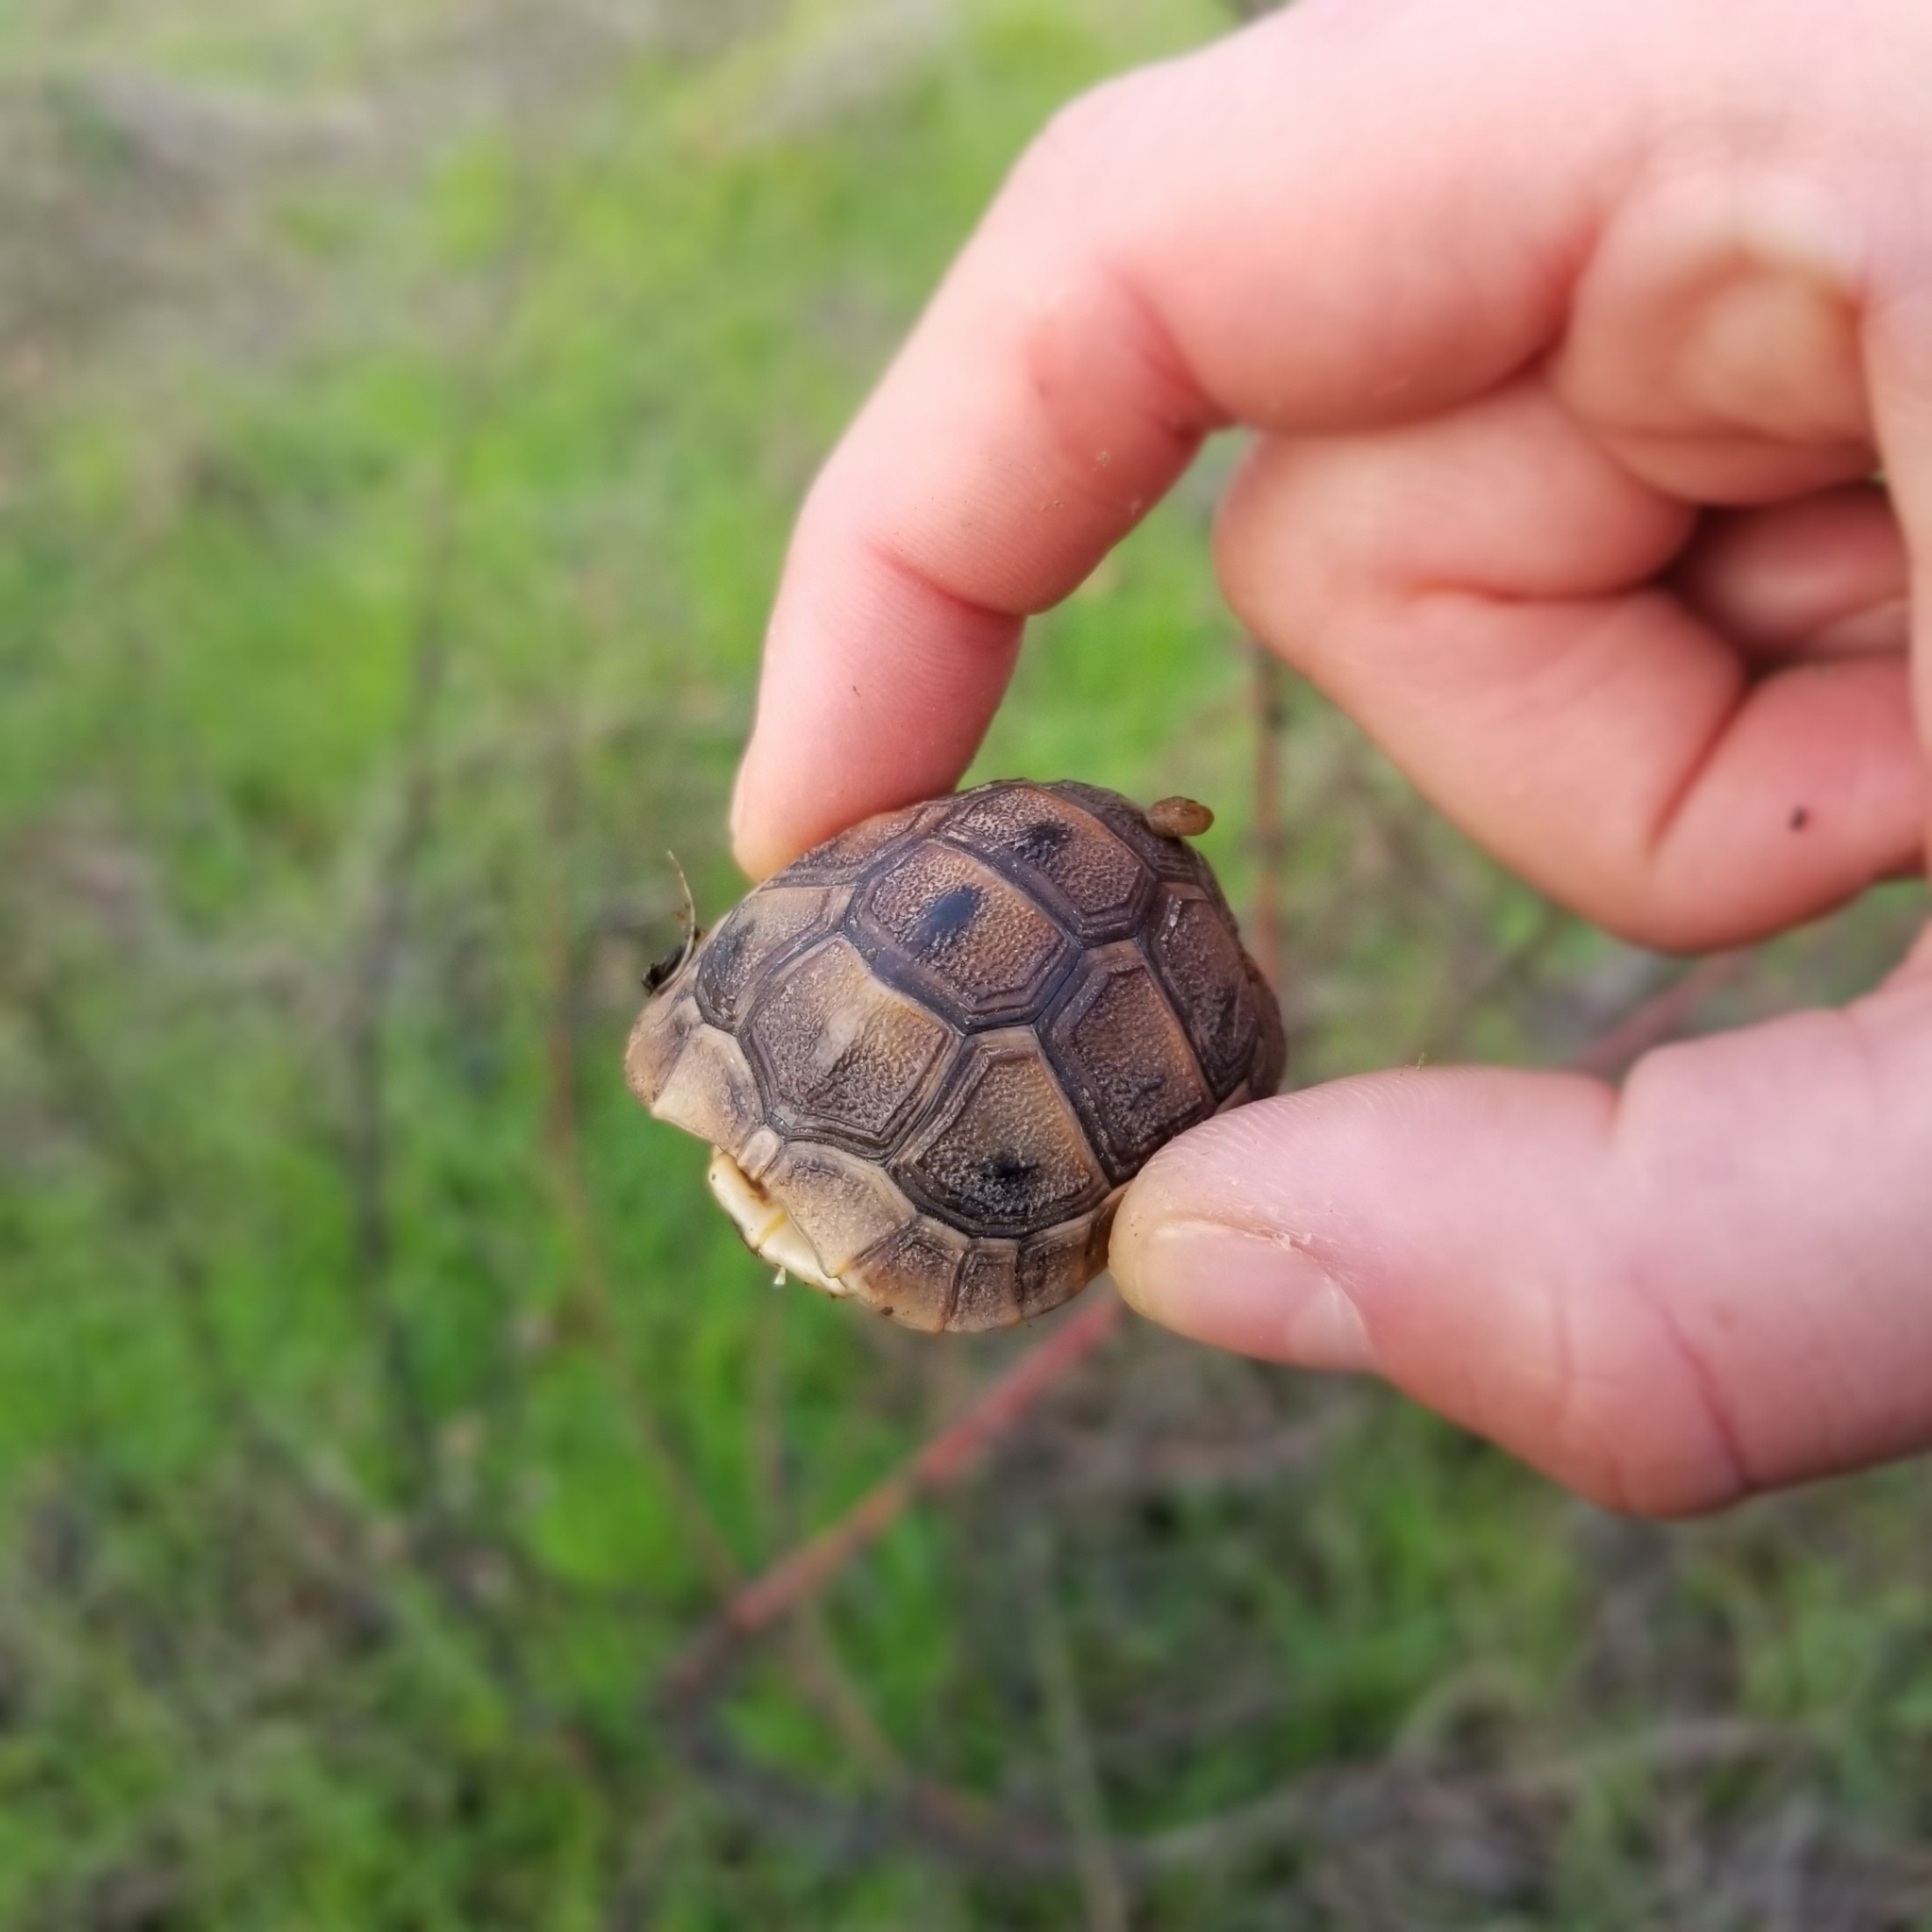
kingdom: Animalia
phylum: Chordata
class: Testudines
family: Testudinidae
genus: Testudo
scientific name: Testudo graeca
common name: Common tortoise
